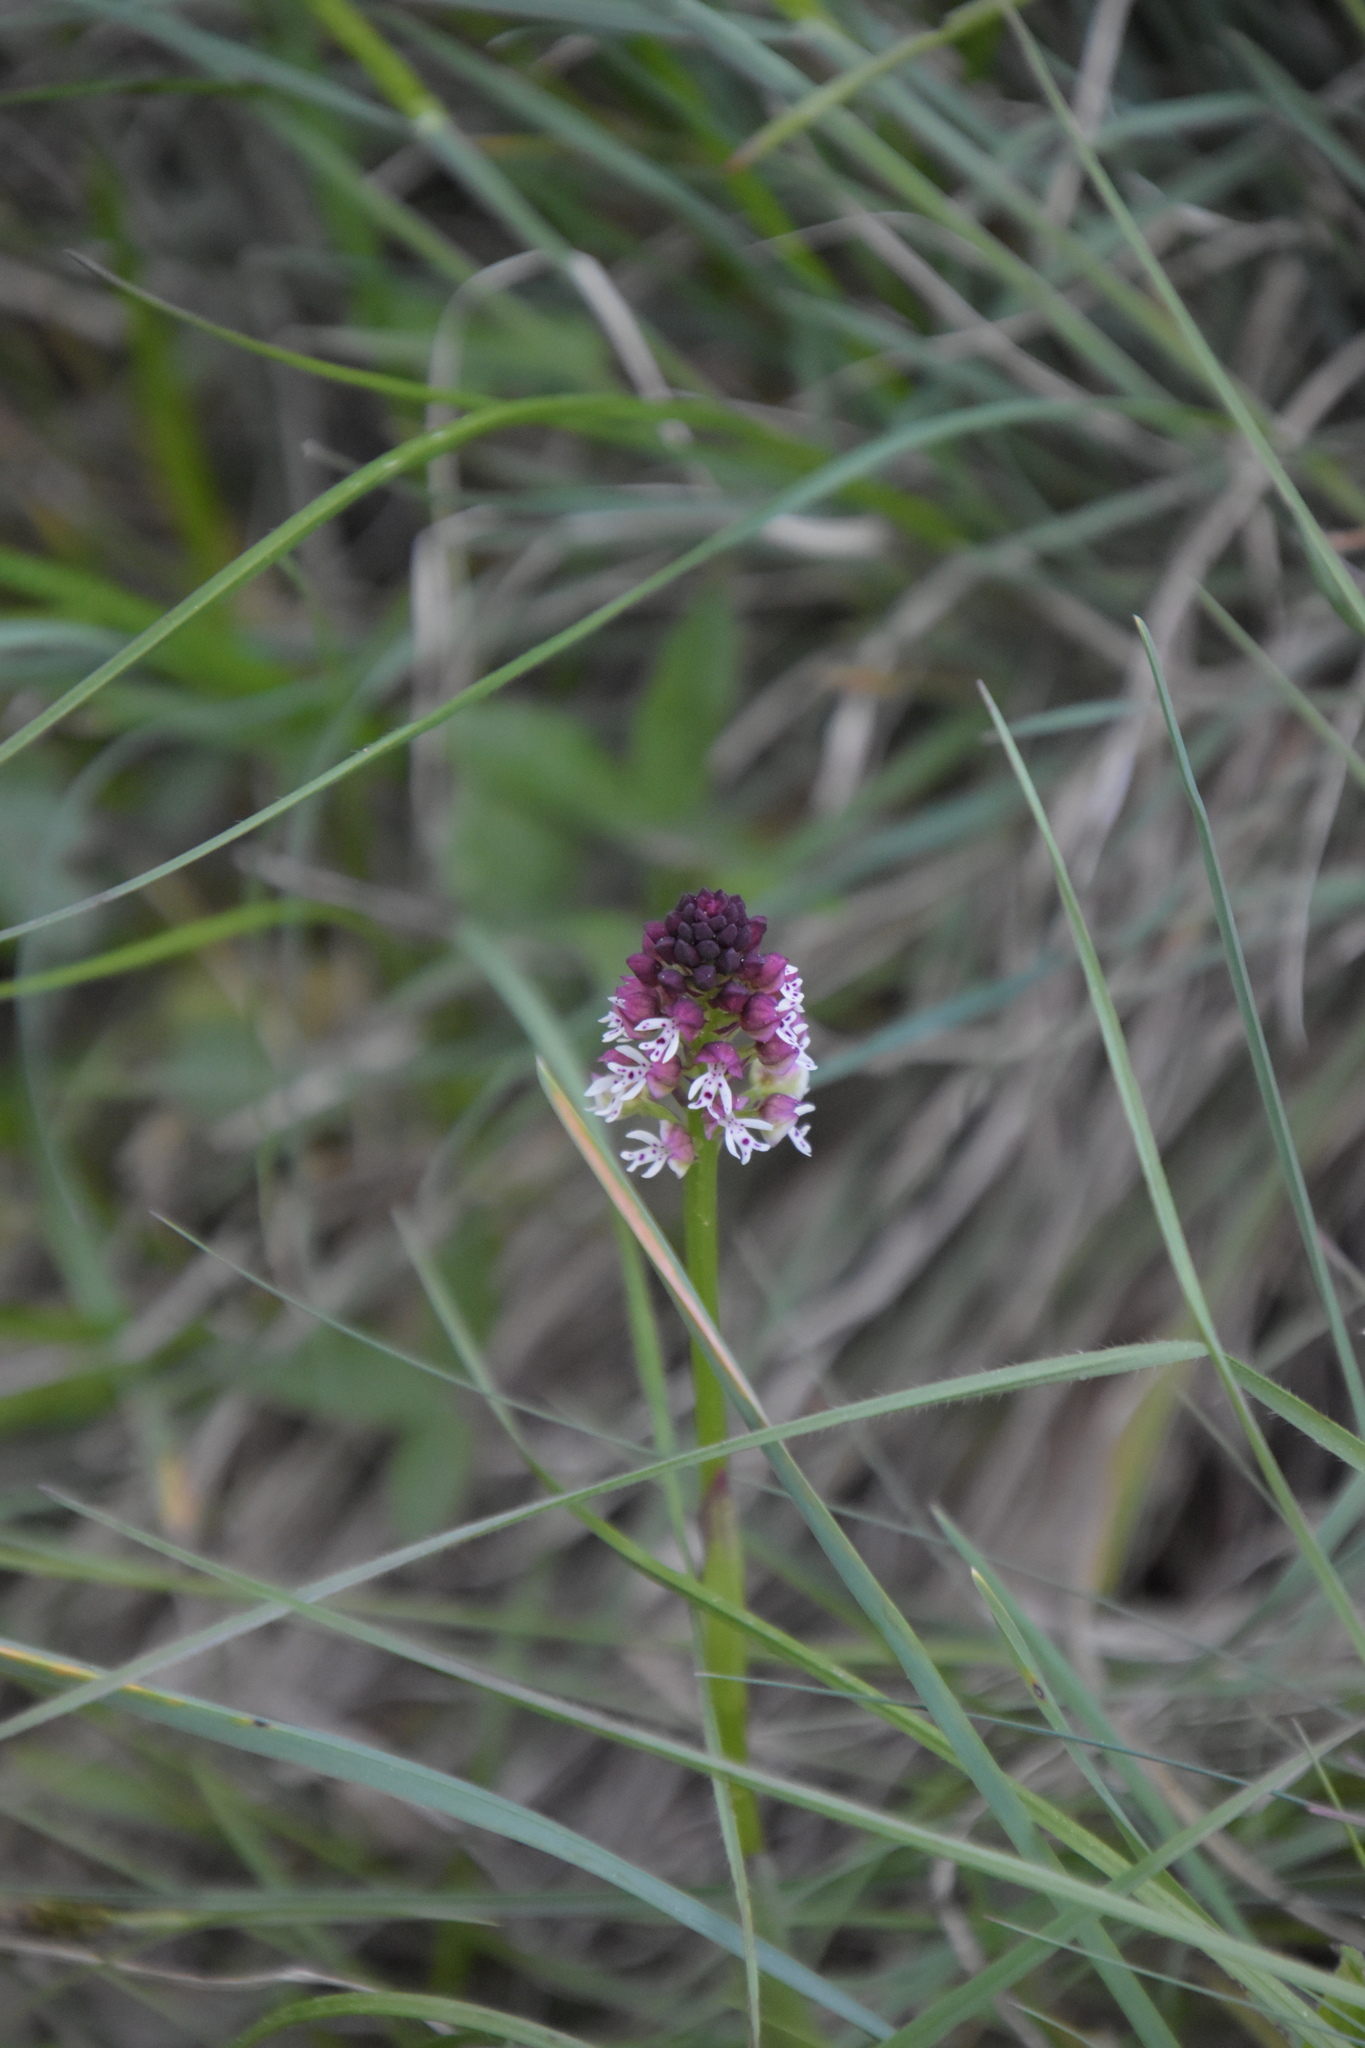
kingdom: Plantae
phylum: Tracheophyta
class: Liliopsida
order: Asparagales
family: Orchidaceae
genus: Neotinea
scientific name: Neotinea ustulata
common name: Burnt orchid
